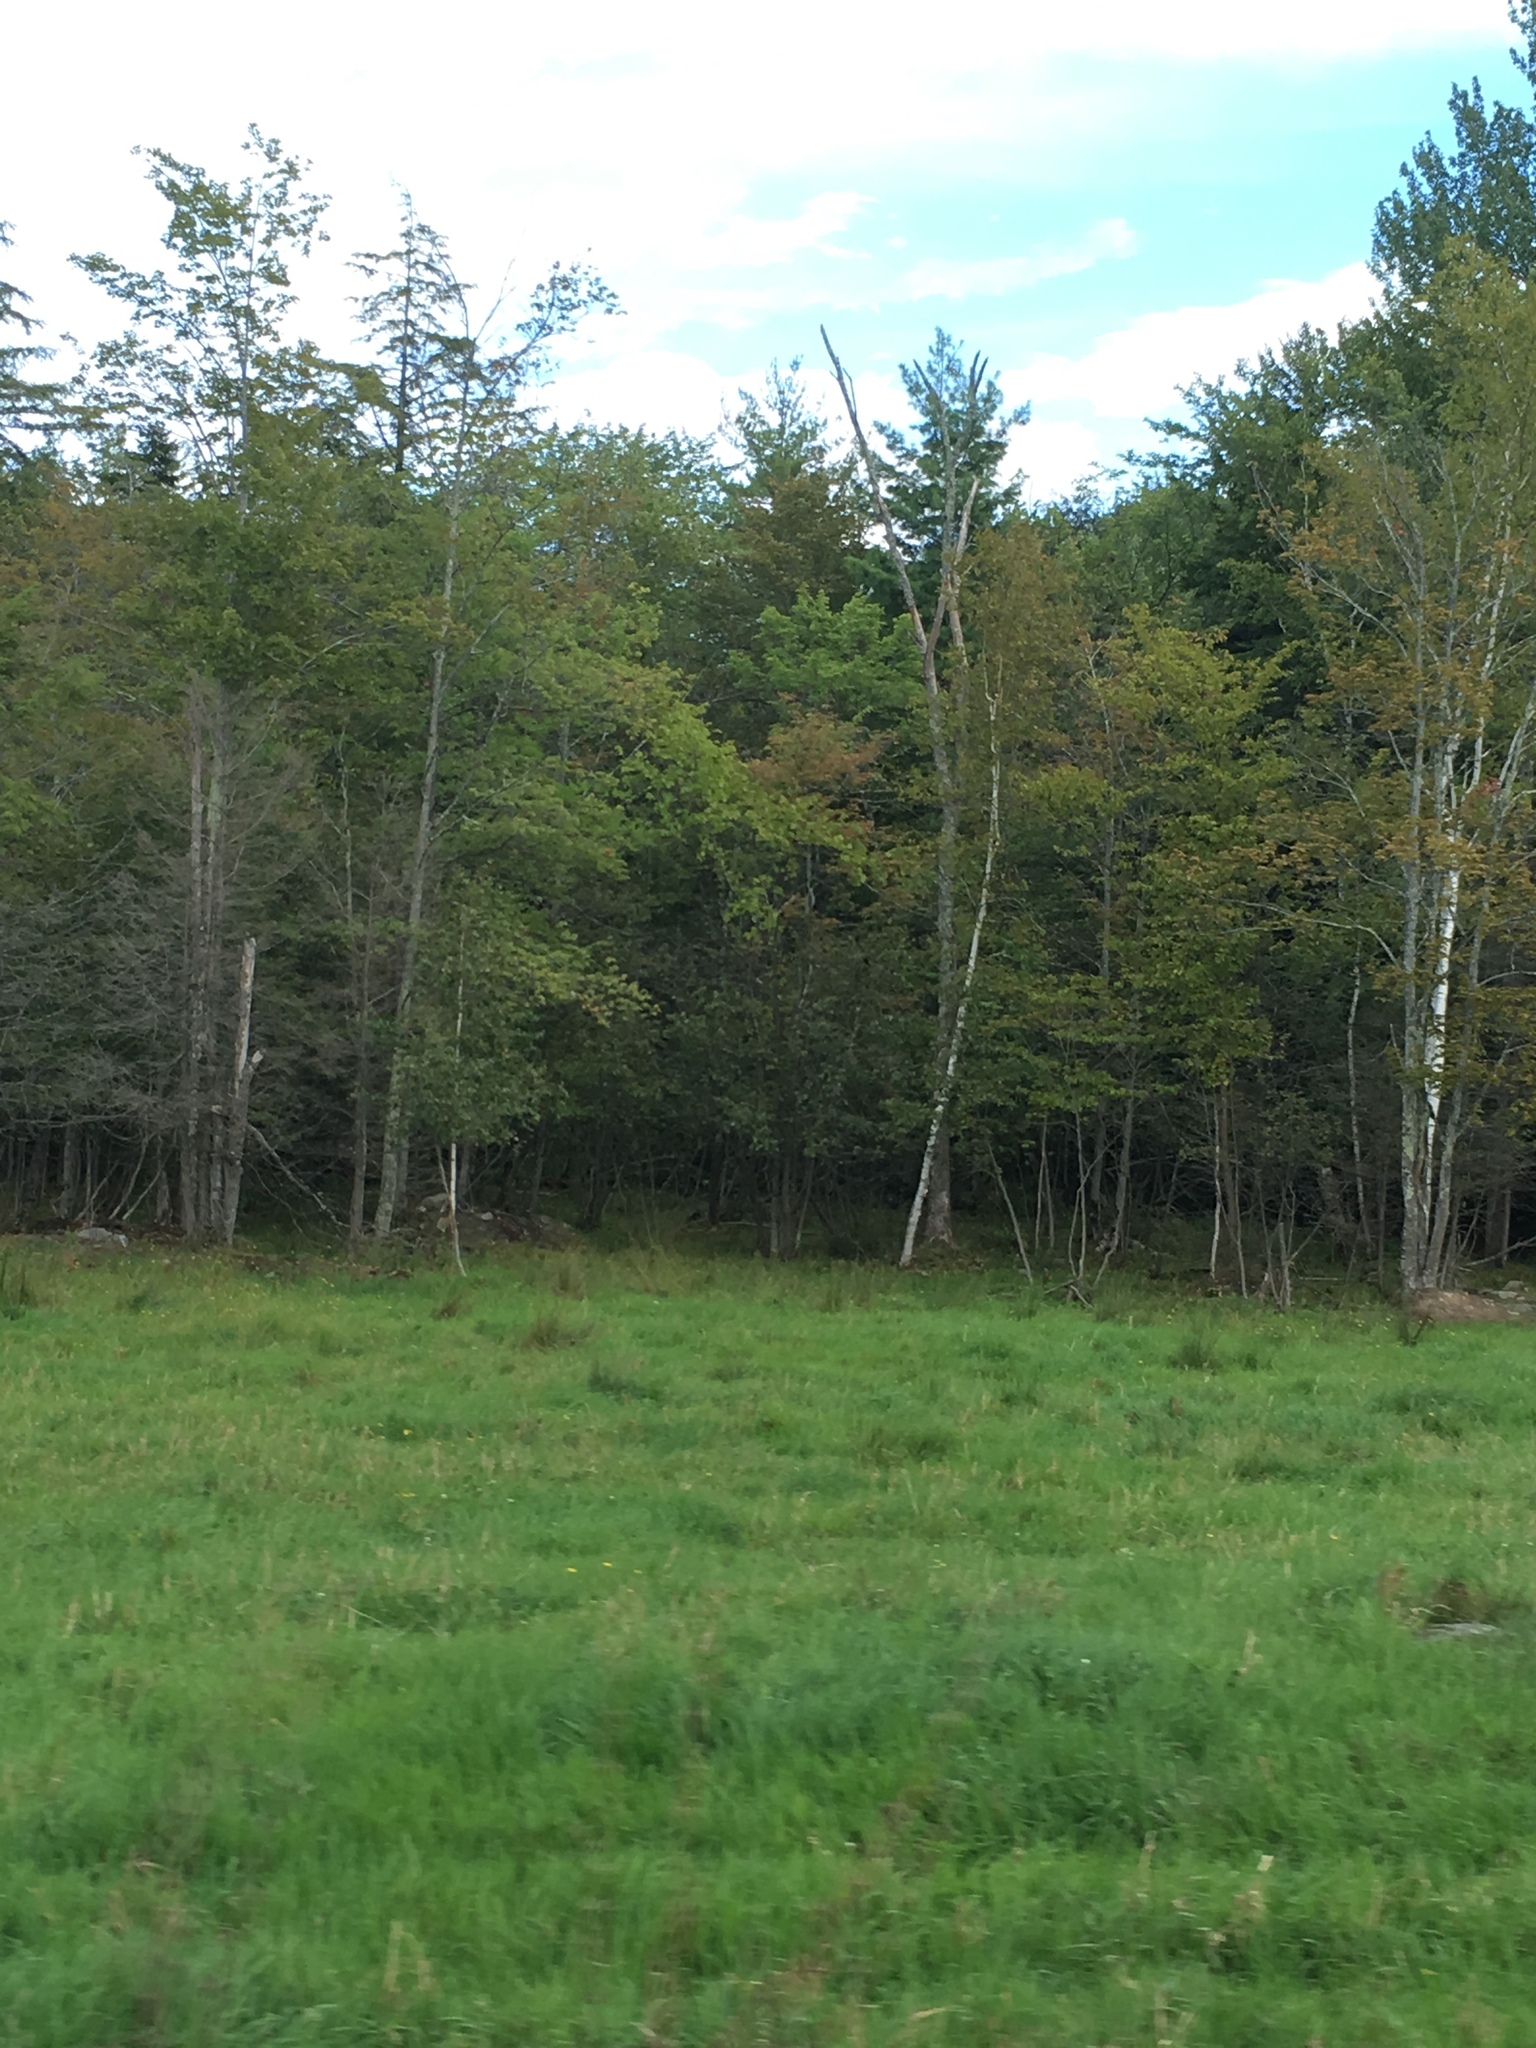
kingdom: Plantae
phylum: Tracheophyta
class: Magnoliopsida
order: Sapindales
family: Sapindaceae
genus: Acer
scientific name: Acer rubrum
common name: Red maple
